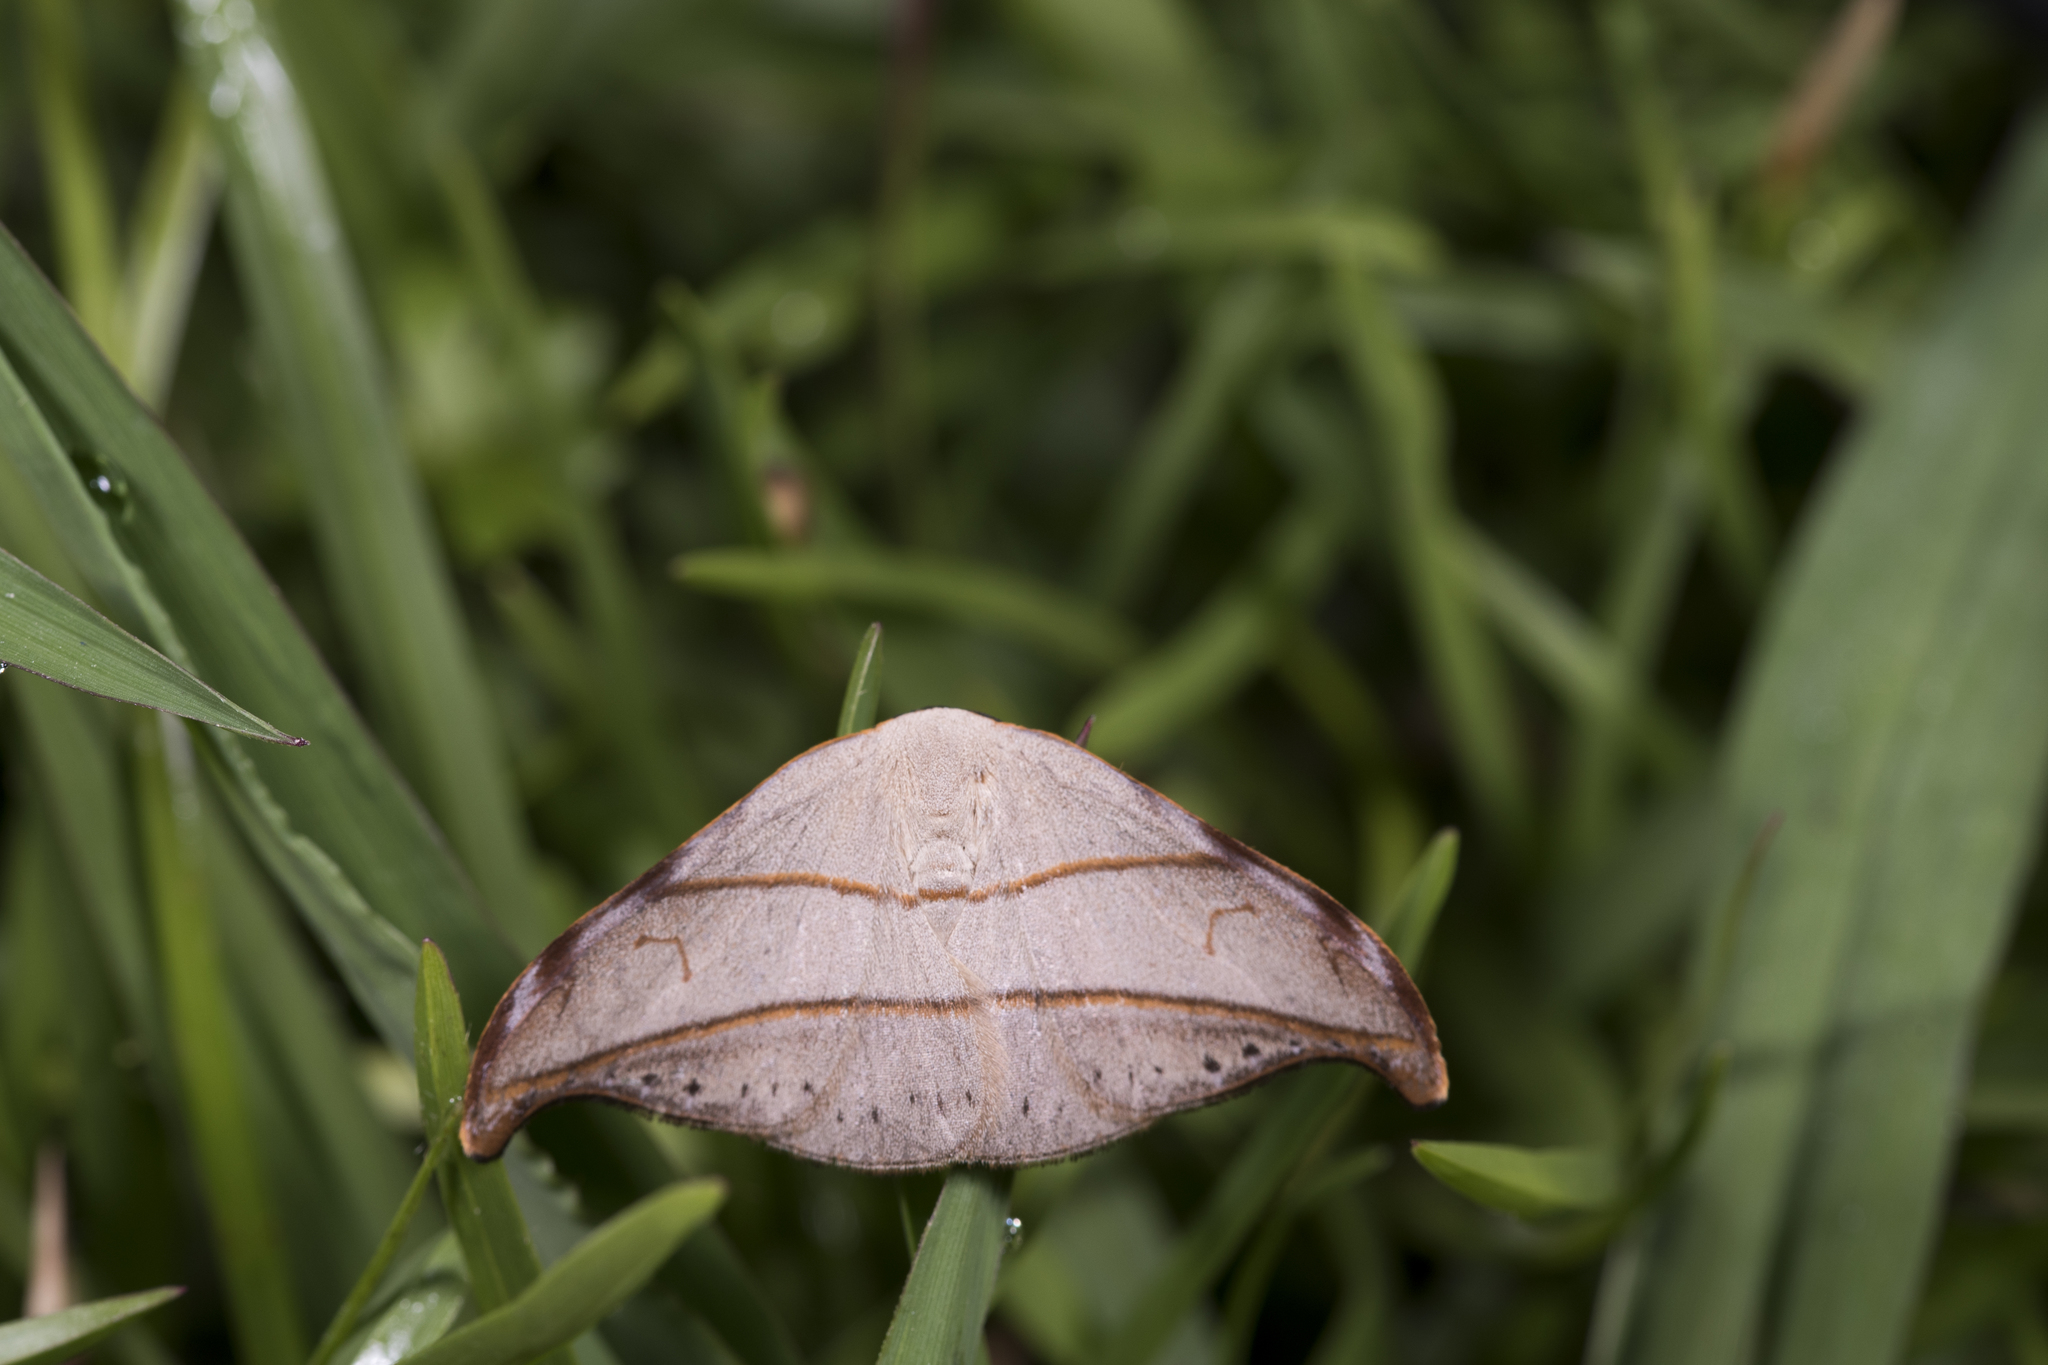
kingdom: Animalia
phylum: Arthropoda
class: Insecta
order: Lepidoptera
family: Drepanidae
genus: Nordstromia
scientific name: Nordstromia semililacina
